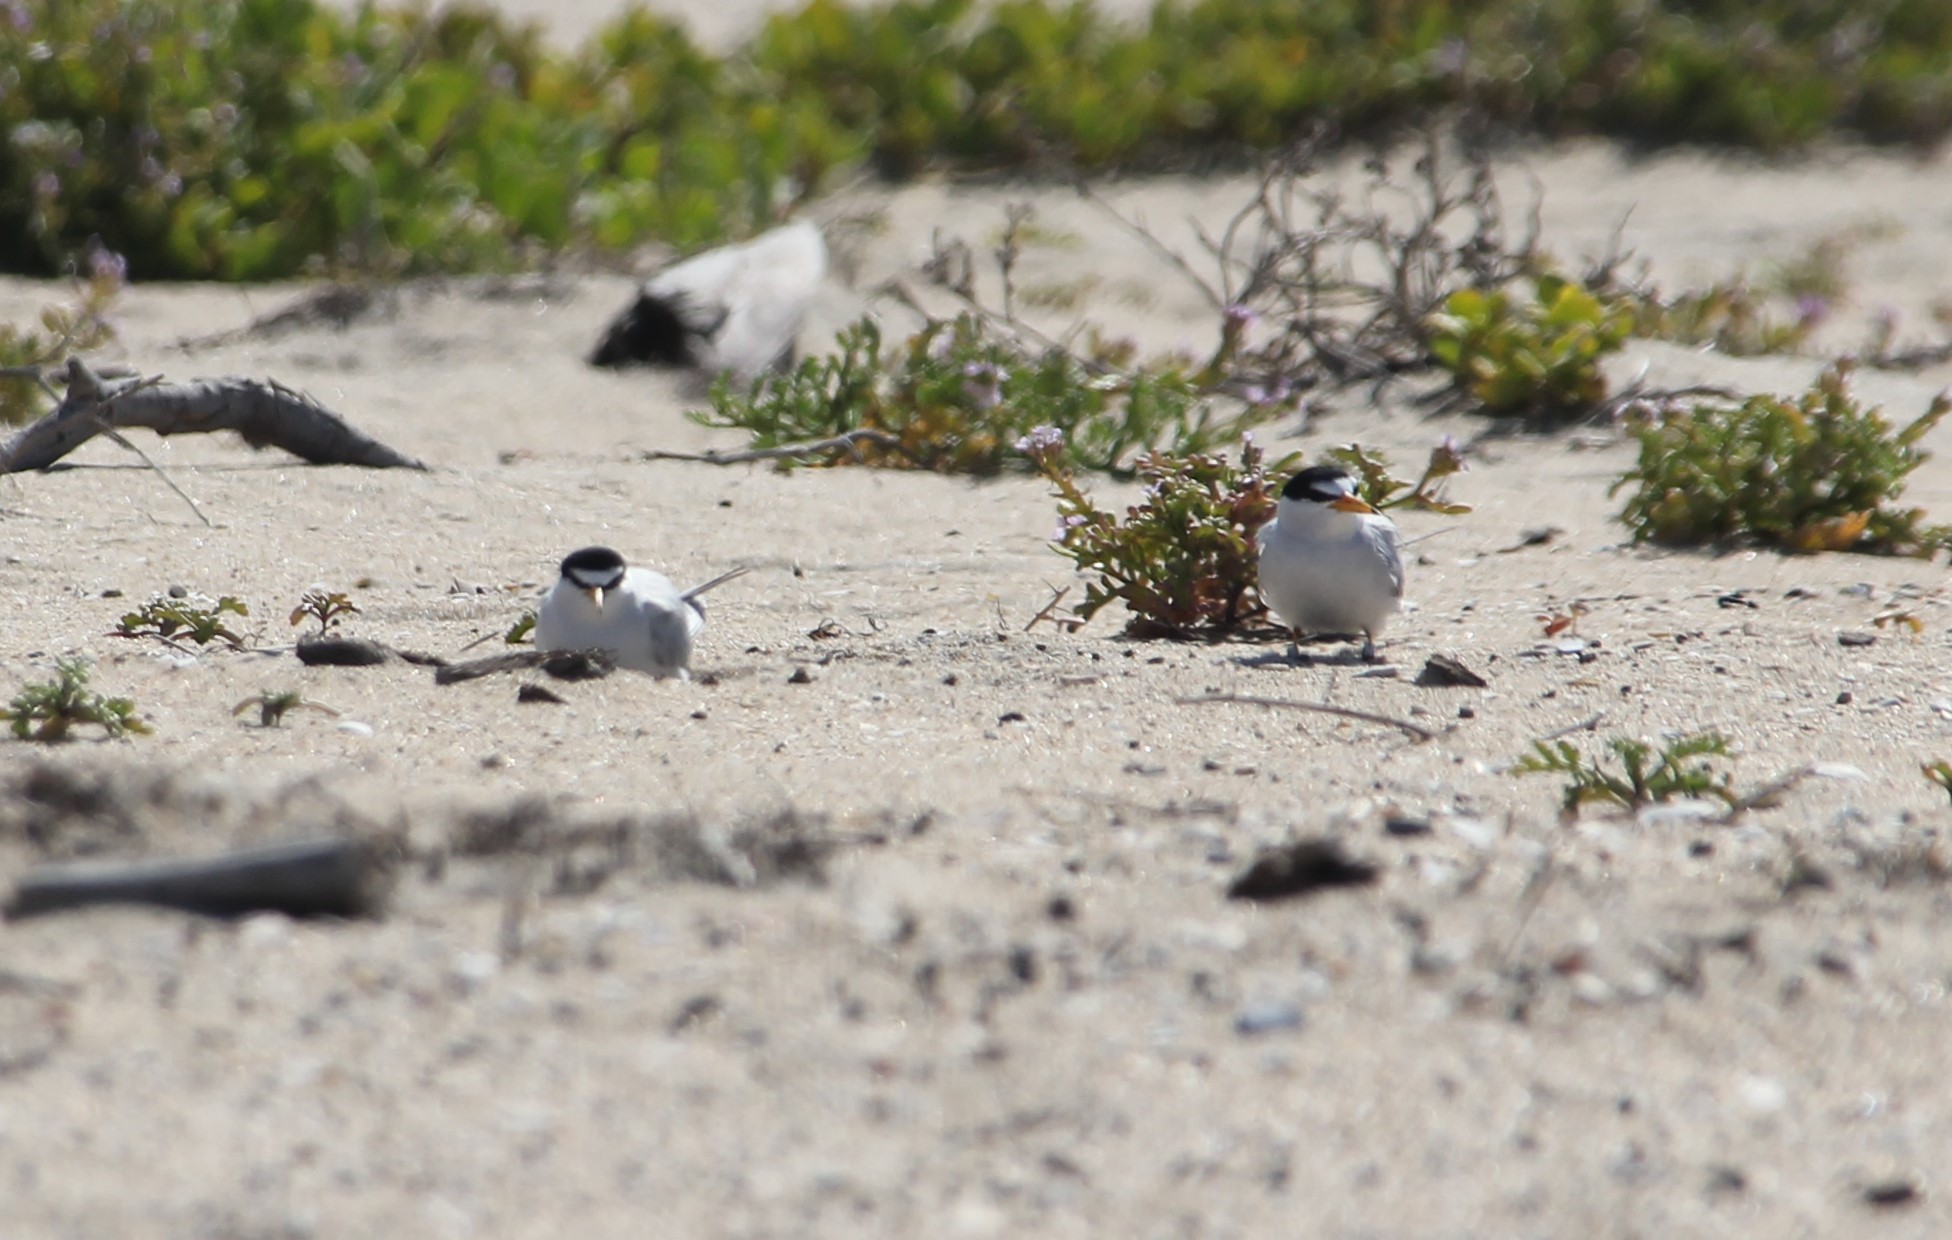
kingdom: Animalia
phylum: Chordata
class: Aves
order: Charadriiformes
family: Laridae
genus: Sternula
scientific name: Sternula antillarum
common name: Least tern
